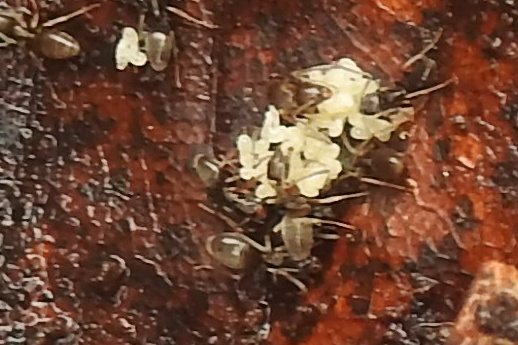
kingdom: Animalia
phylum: Arthropoda
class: Insecta
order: Hymenoptera
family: Formicidae
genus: Tapinoma
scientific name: Tapinoma sessile
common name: Odorous house ant
